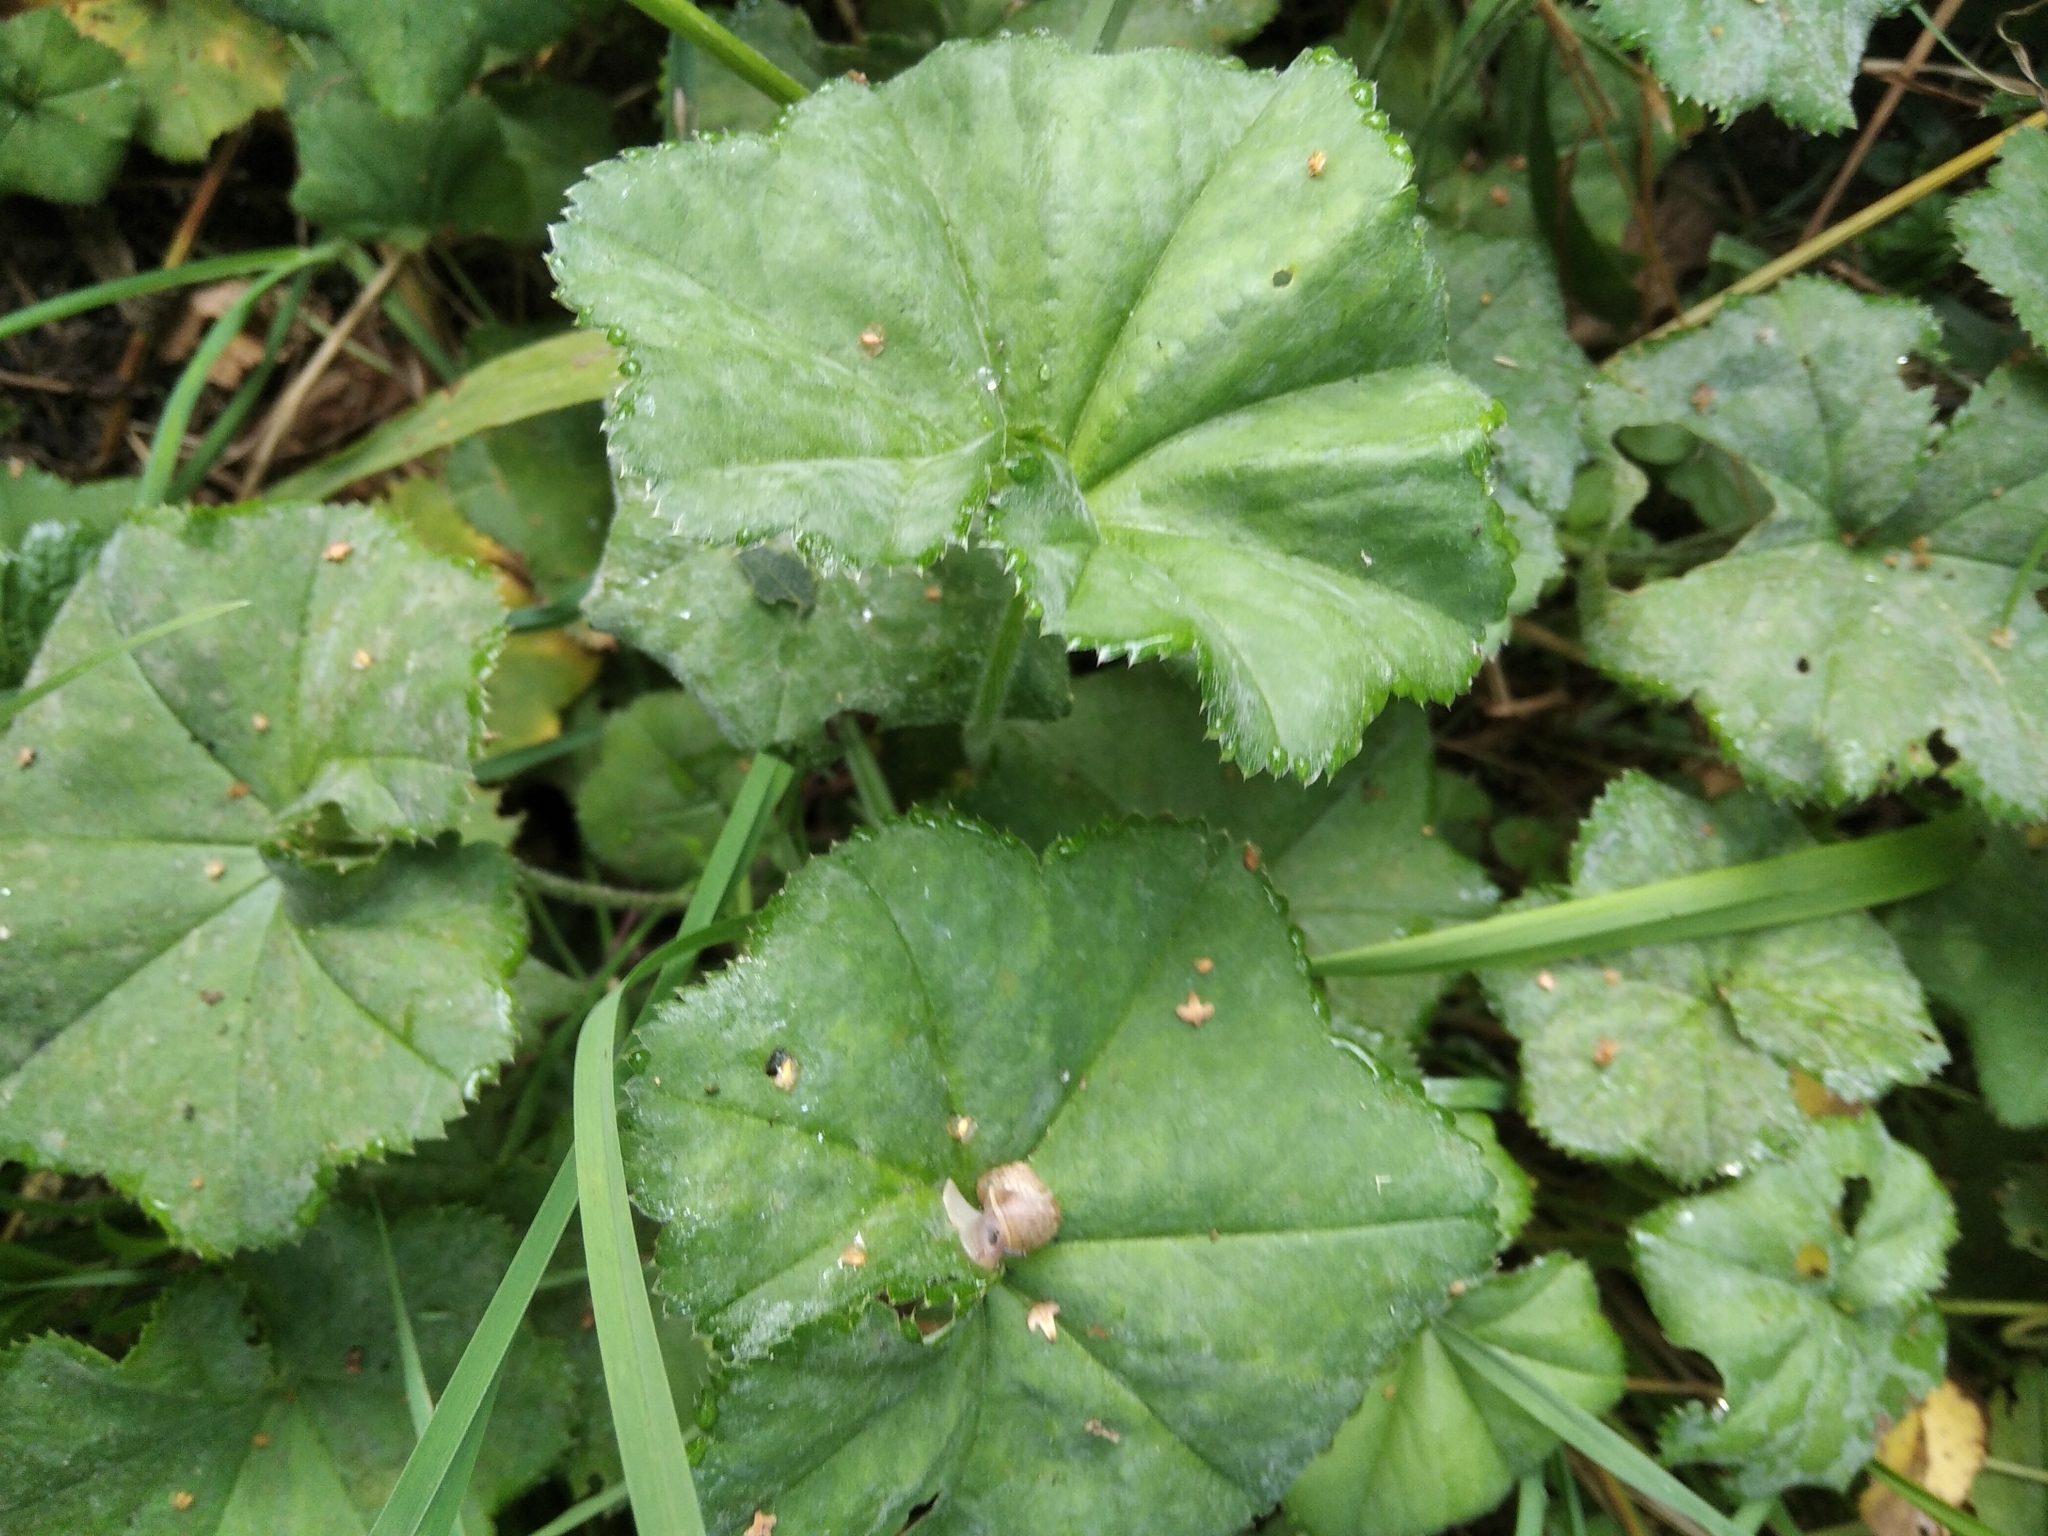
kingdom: Plantae
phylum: Tracheophyta
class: Magnoliopsida
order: Rosales
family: Rosaceae
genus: Alchemilla
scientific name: Alchemilla
